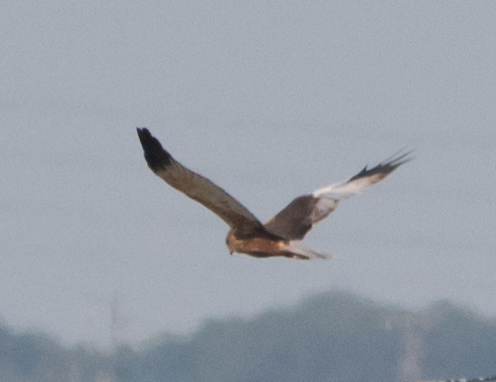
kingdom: Animalia
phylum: Chordata
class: Aves
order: Accipitriformes
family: Accipitridae
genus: Circus
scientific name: Circus aeruginosus
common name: Western marsh harrier
